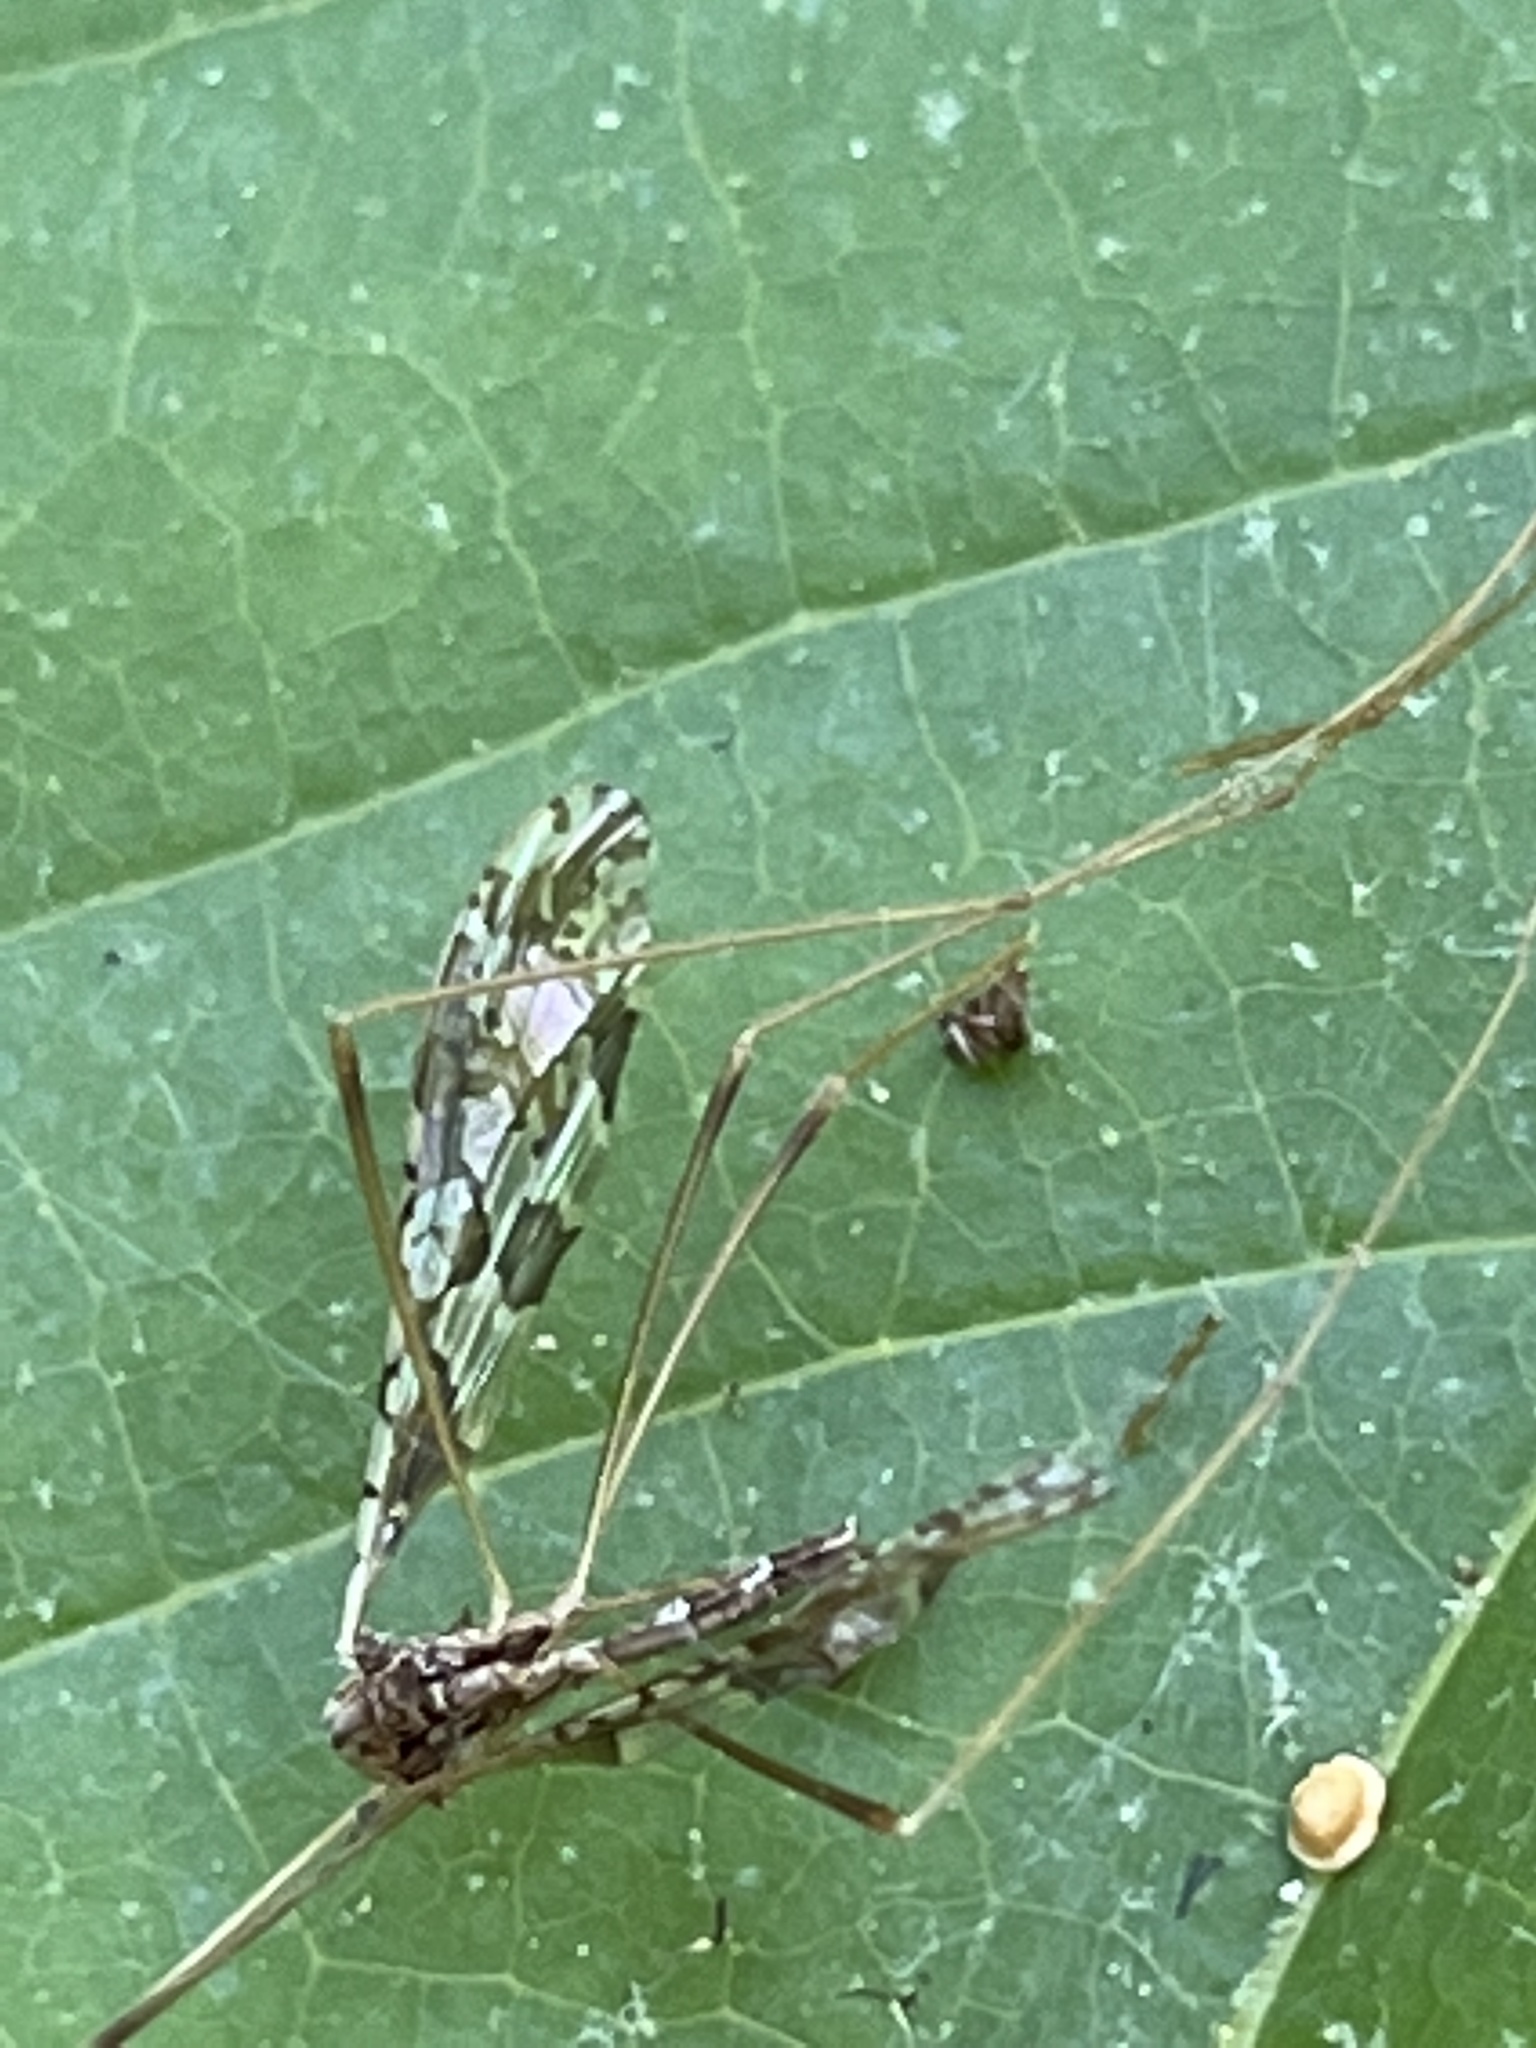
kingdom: Animalia
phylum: Arthropoda
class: Insecta
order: Diptera
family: Limoniidae
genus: Epiphragma
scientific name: Epiphragma solatrix
